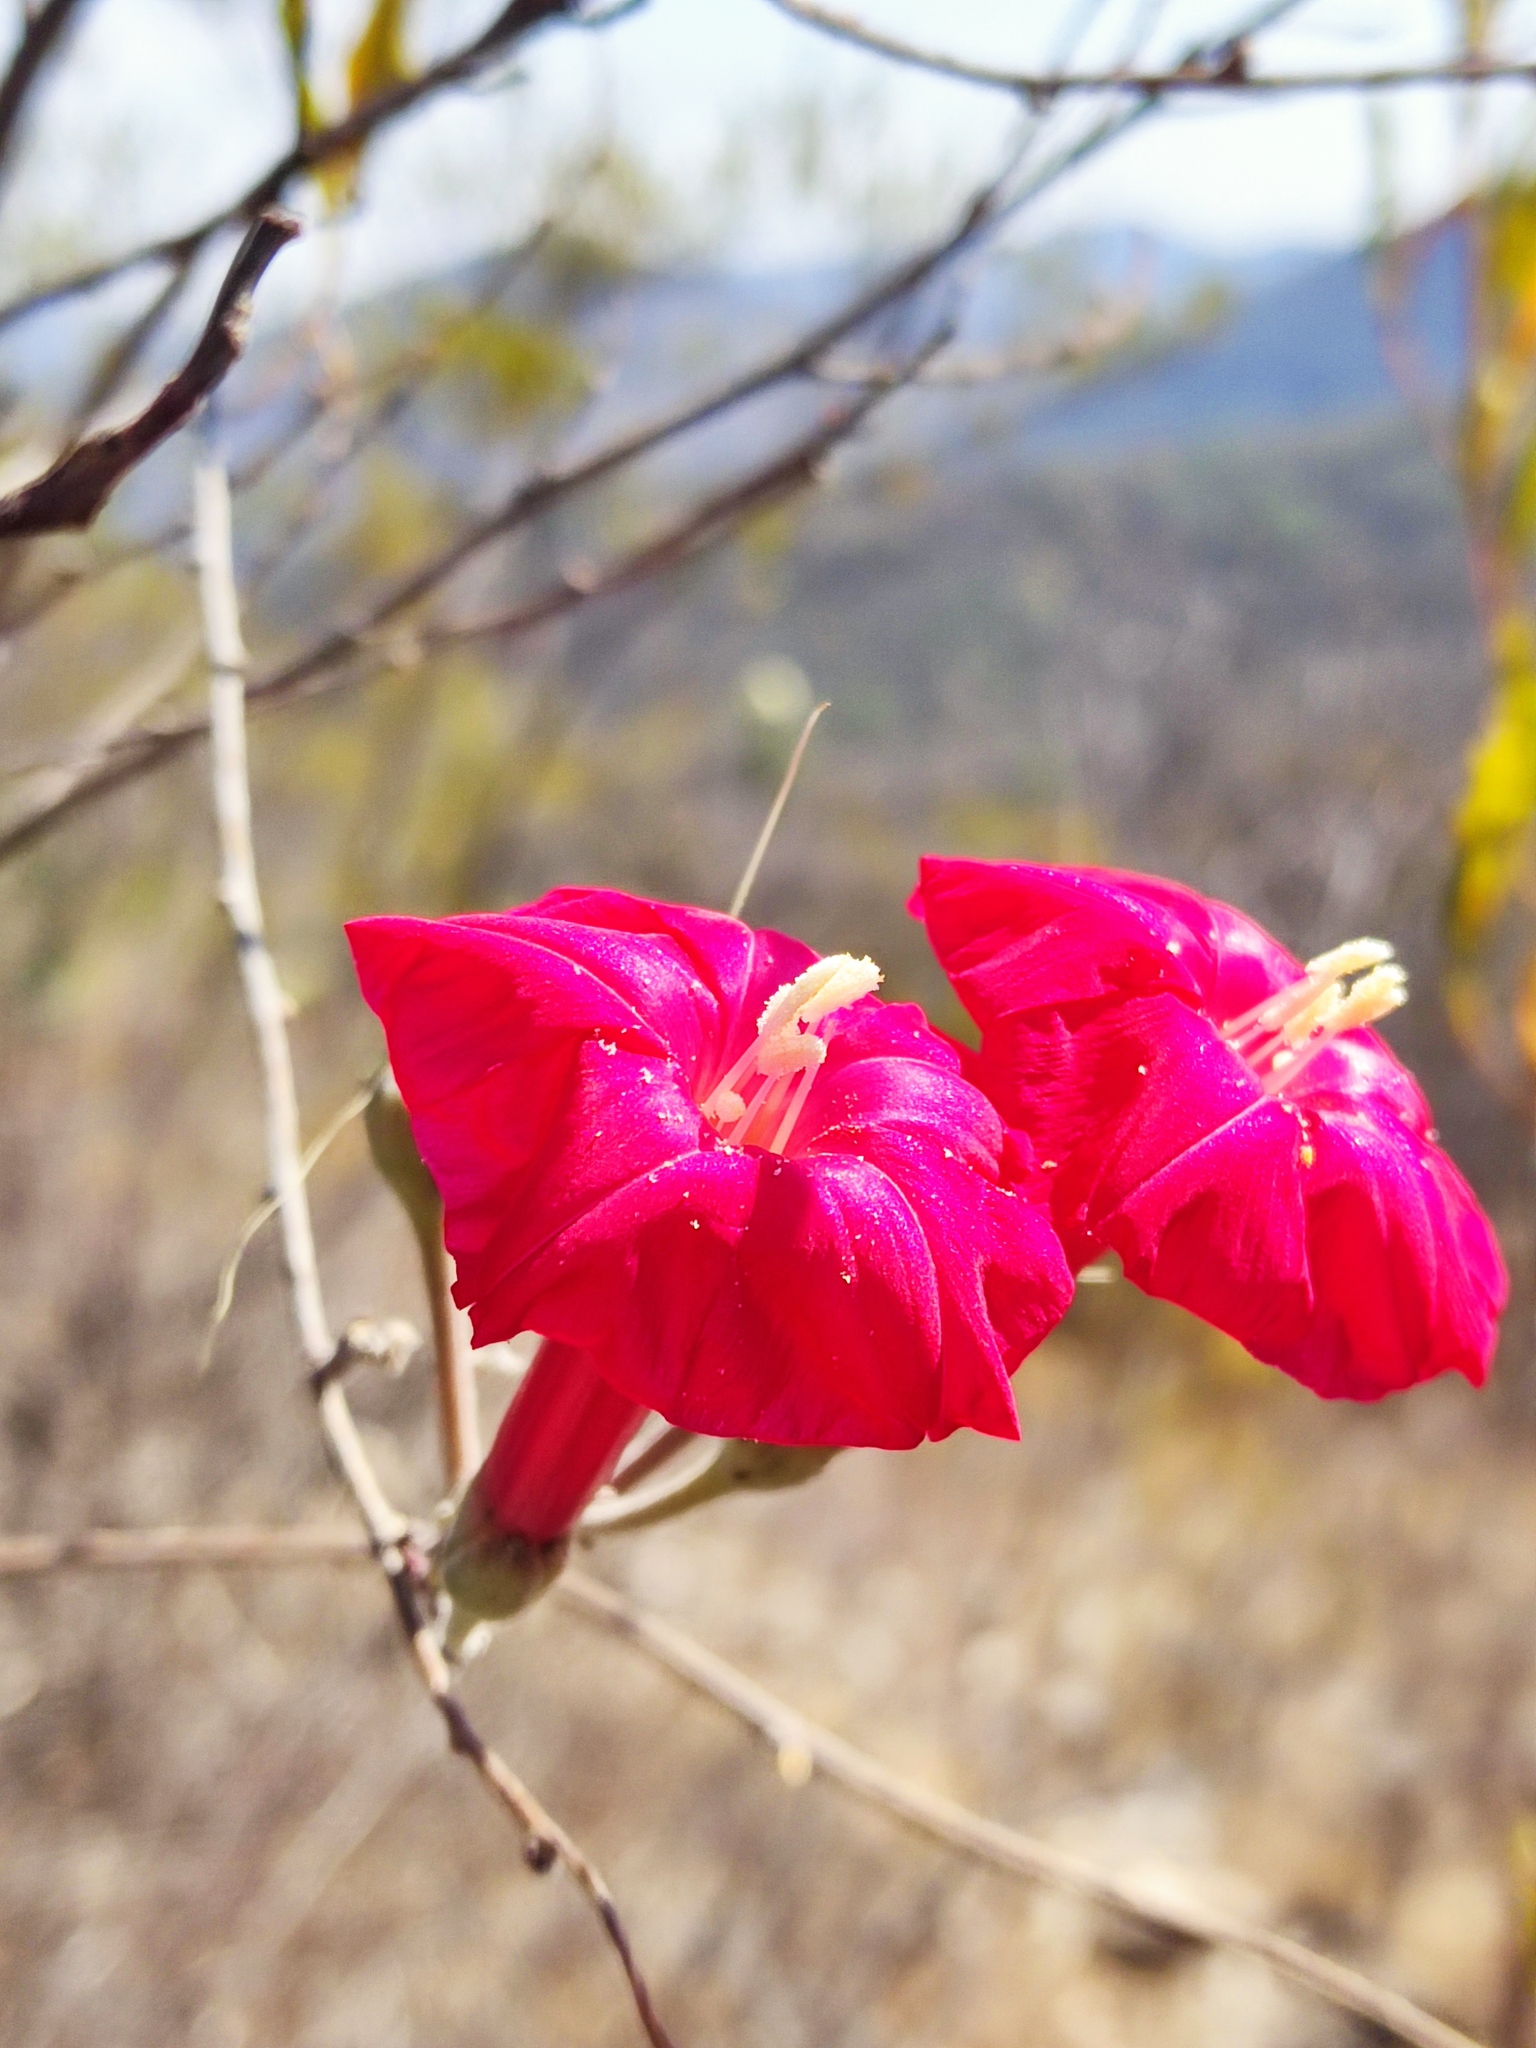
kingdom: Plantae
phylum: Tracheophyta
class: Magnoliopsida
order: Solanales
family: Convolvulaceae
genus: Ipomoea
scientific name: Ipomoea conzattii
